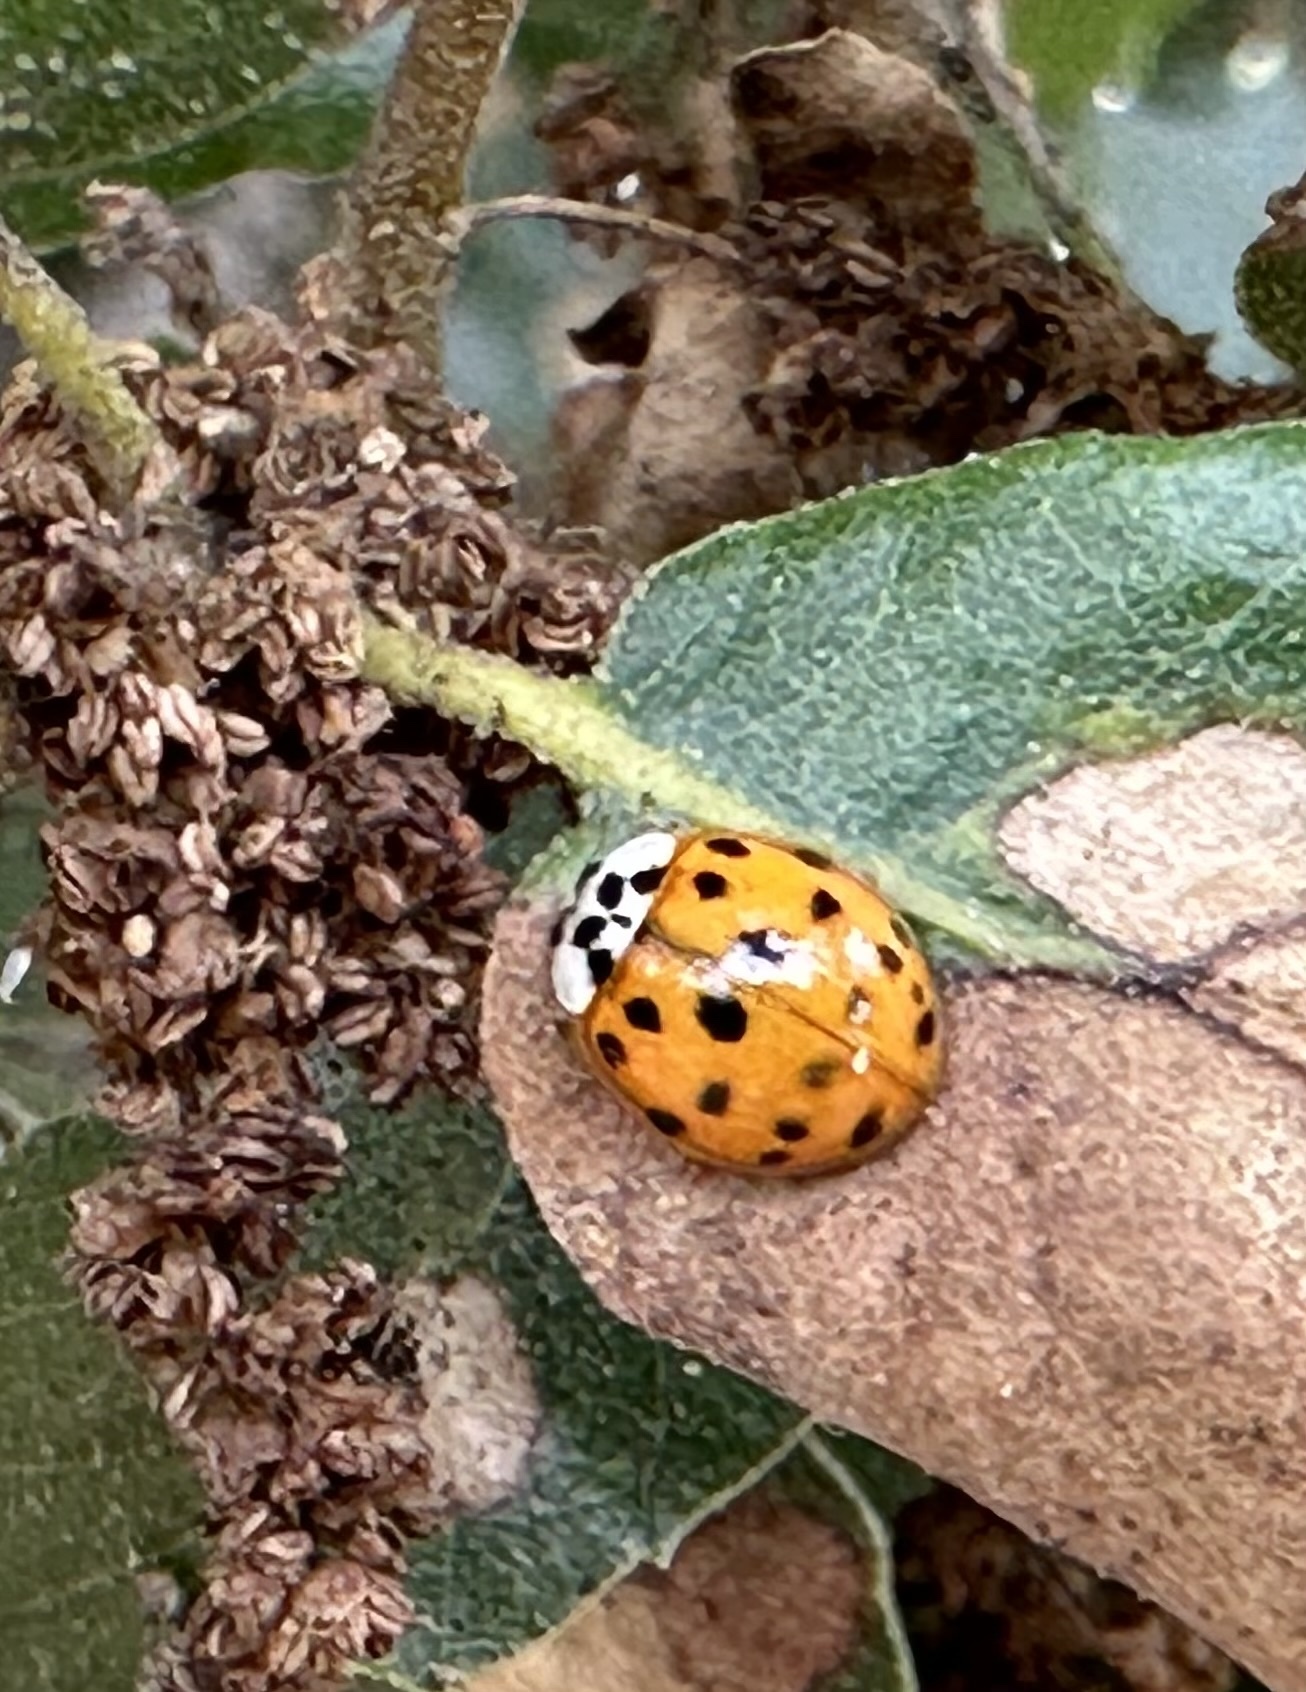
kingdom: Animalia
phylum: Arthropoda
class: Insecta
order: Coleoptera
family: Coccinellidae
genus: Harmonia
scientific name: Harmonia axyridis
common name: Harlequin ladybird
